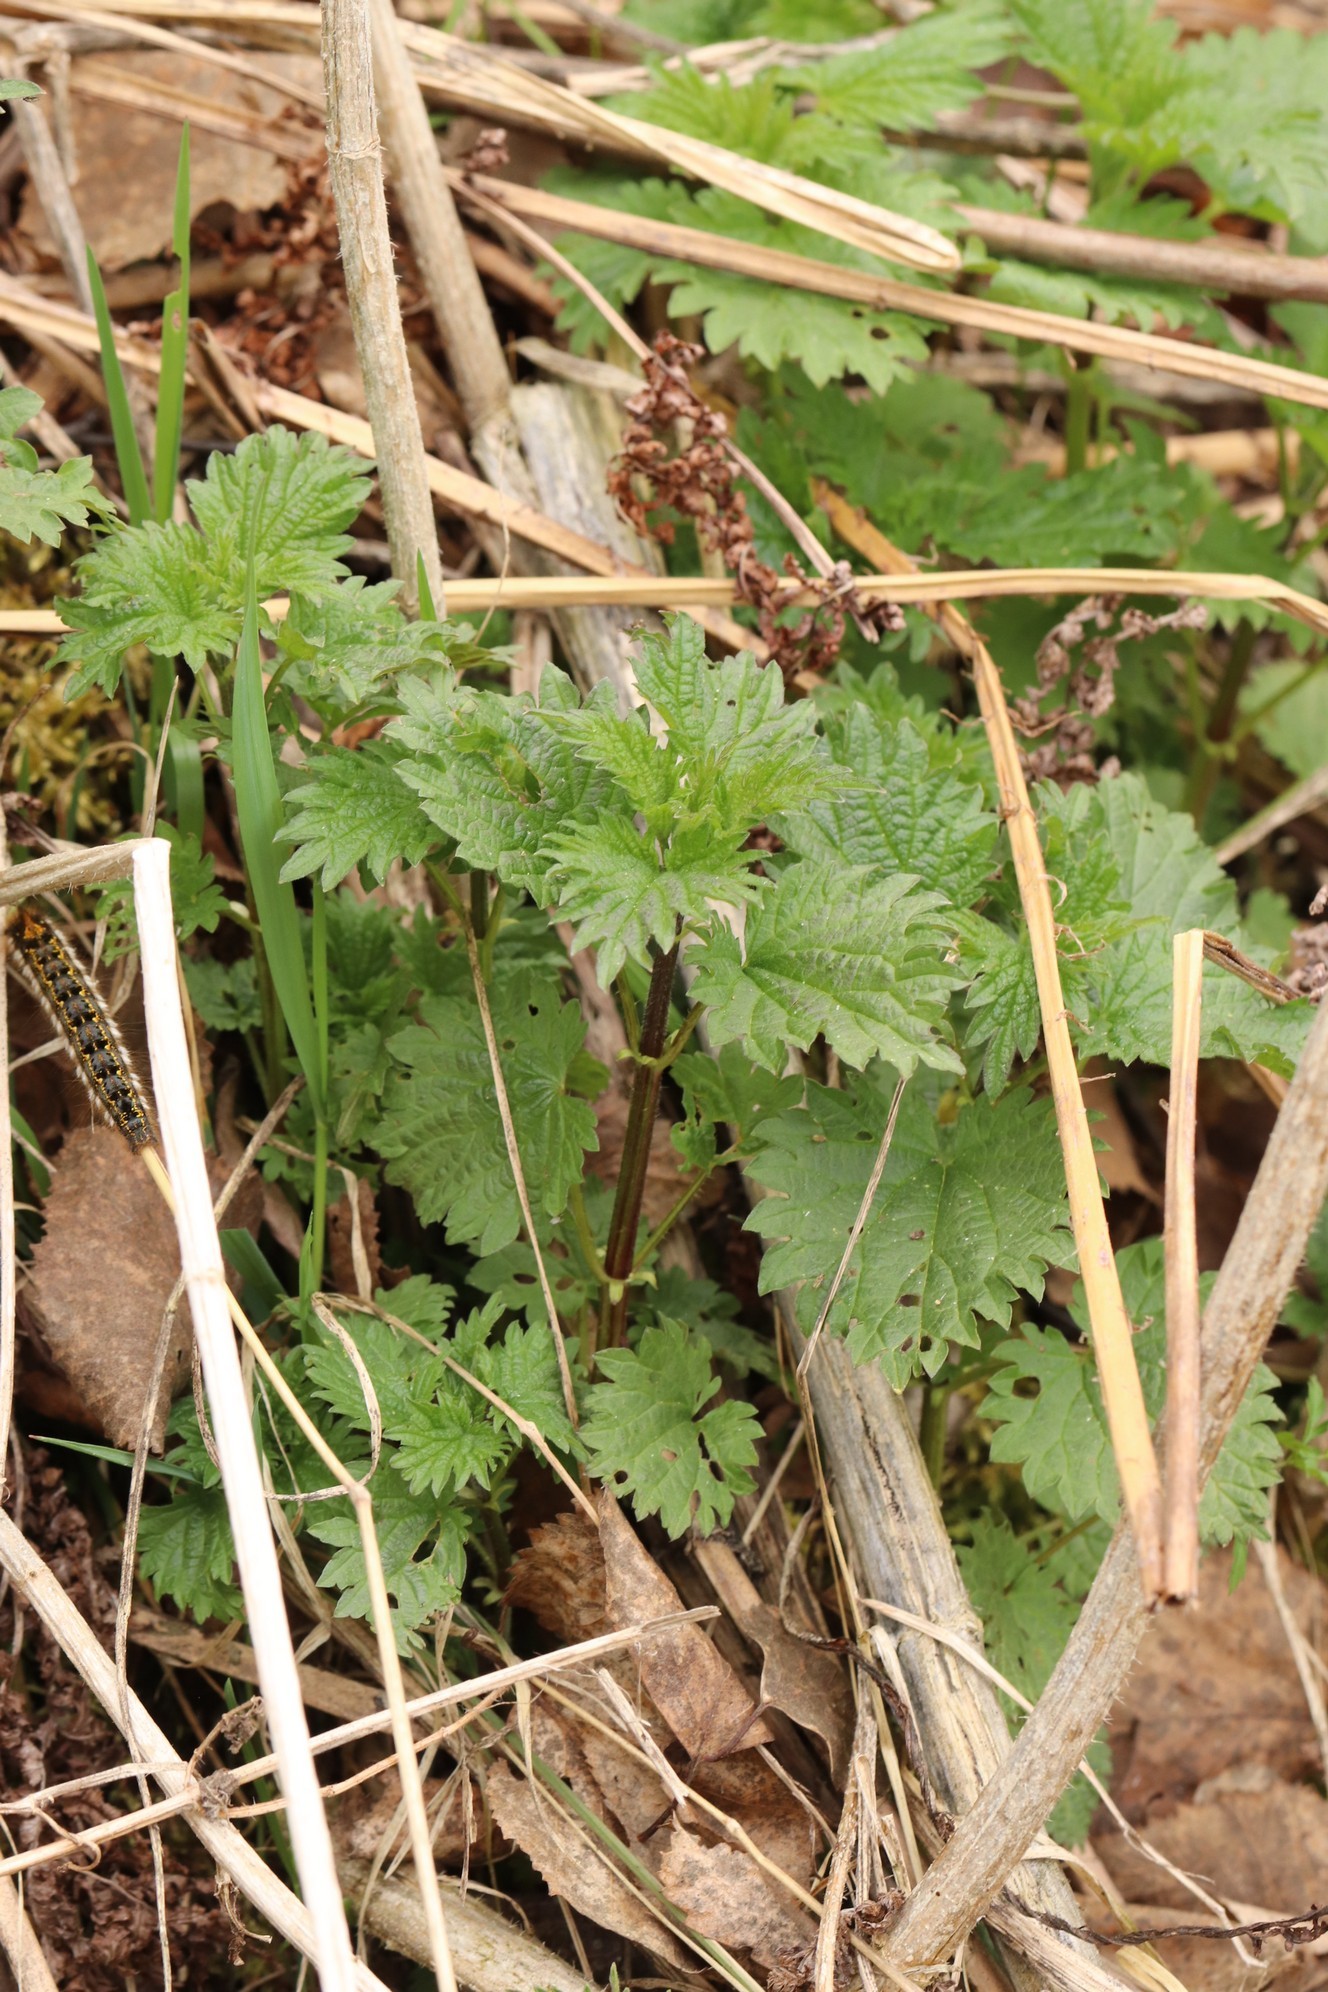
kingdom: Plantae
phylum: Tracheophyta
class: Magnoliopsida
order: Rosales
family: Urticaceae
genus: Urtica
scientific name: Urtica dioica
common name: Common nettle
